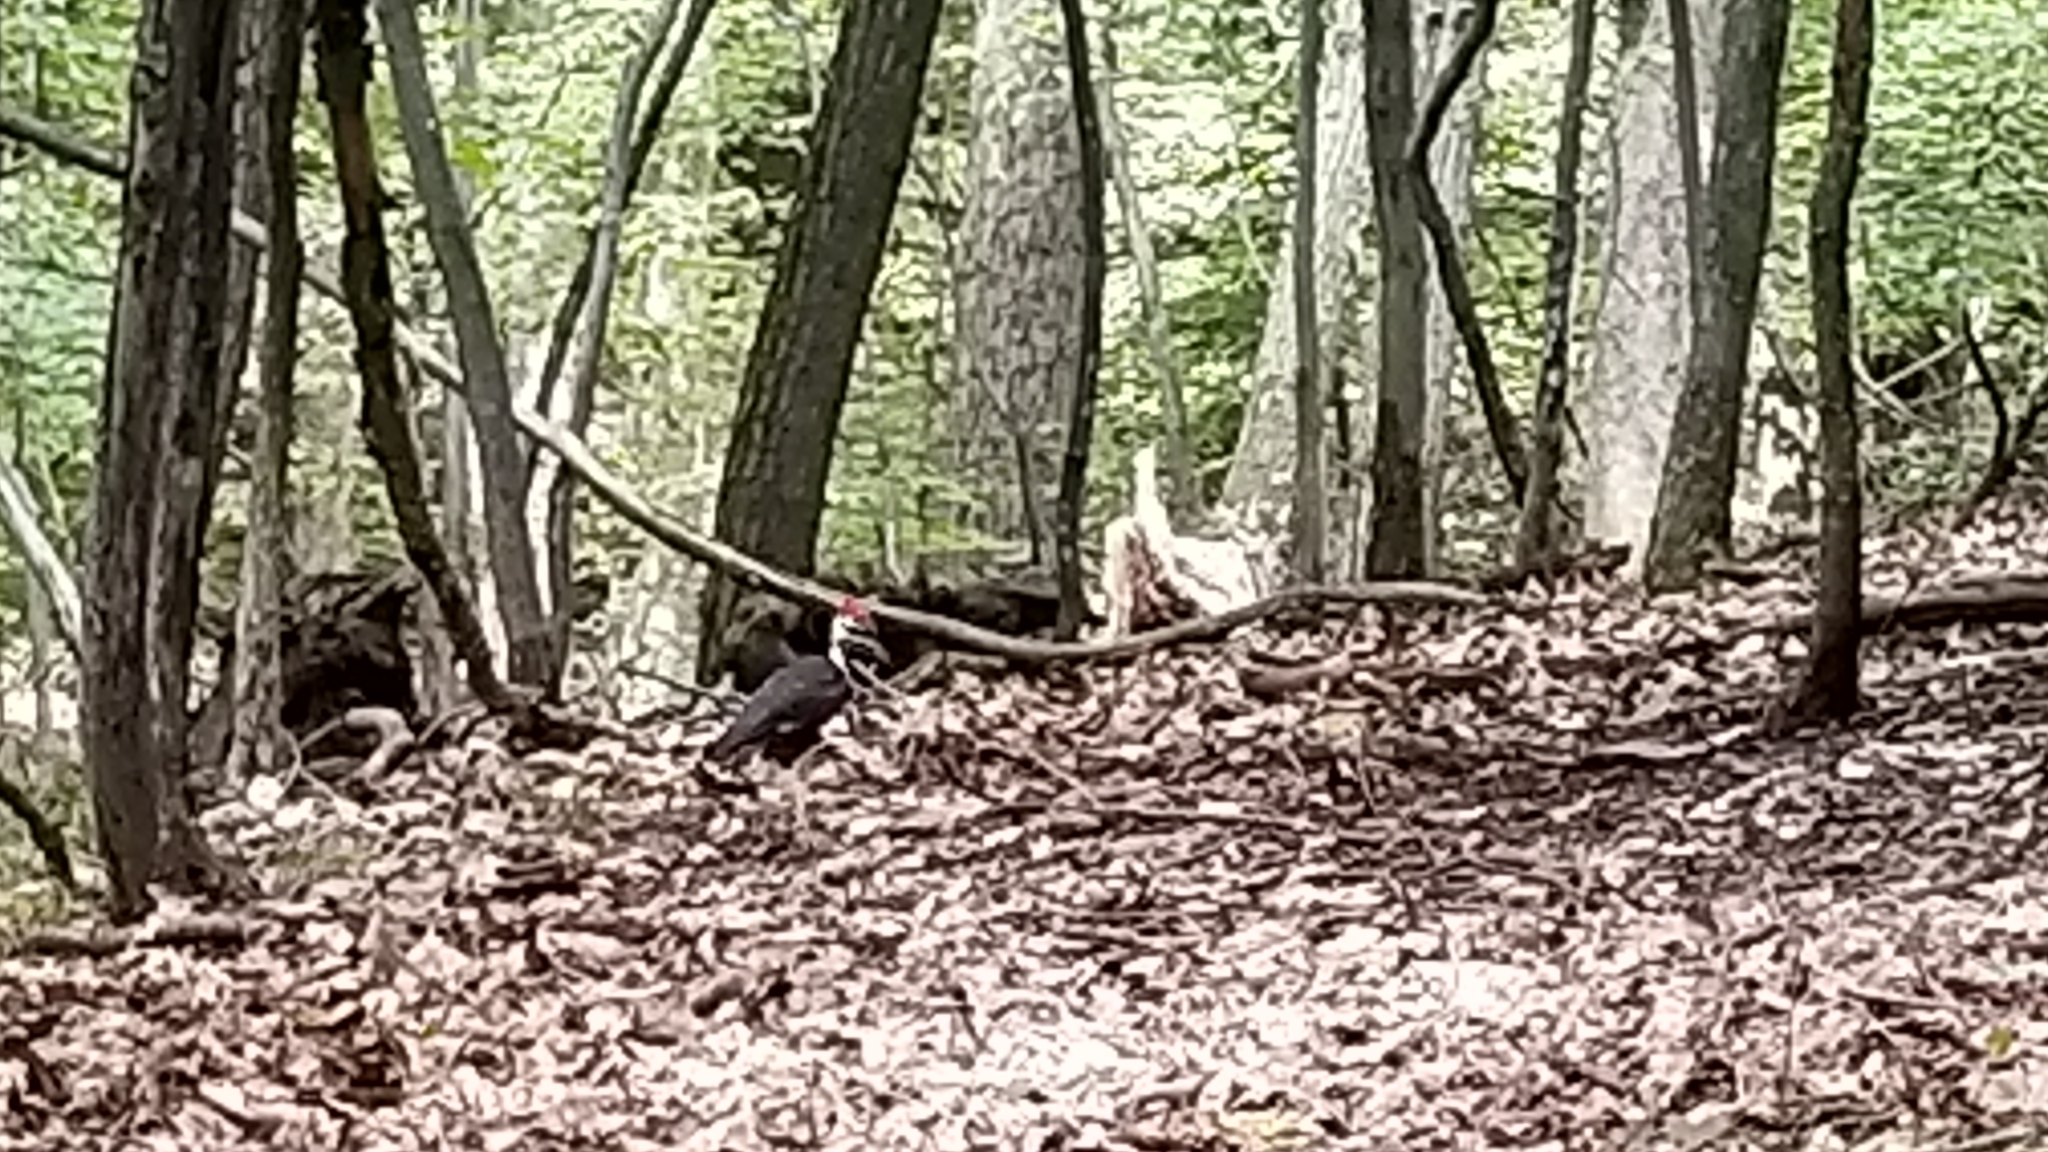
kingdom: Animalia
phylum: Chordata
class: Aves
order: Piciformes
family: Picidae
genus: Dryocopus
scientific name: Dryocopus pileatus
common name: Pileated woodpecker
